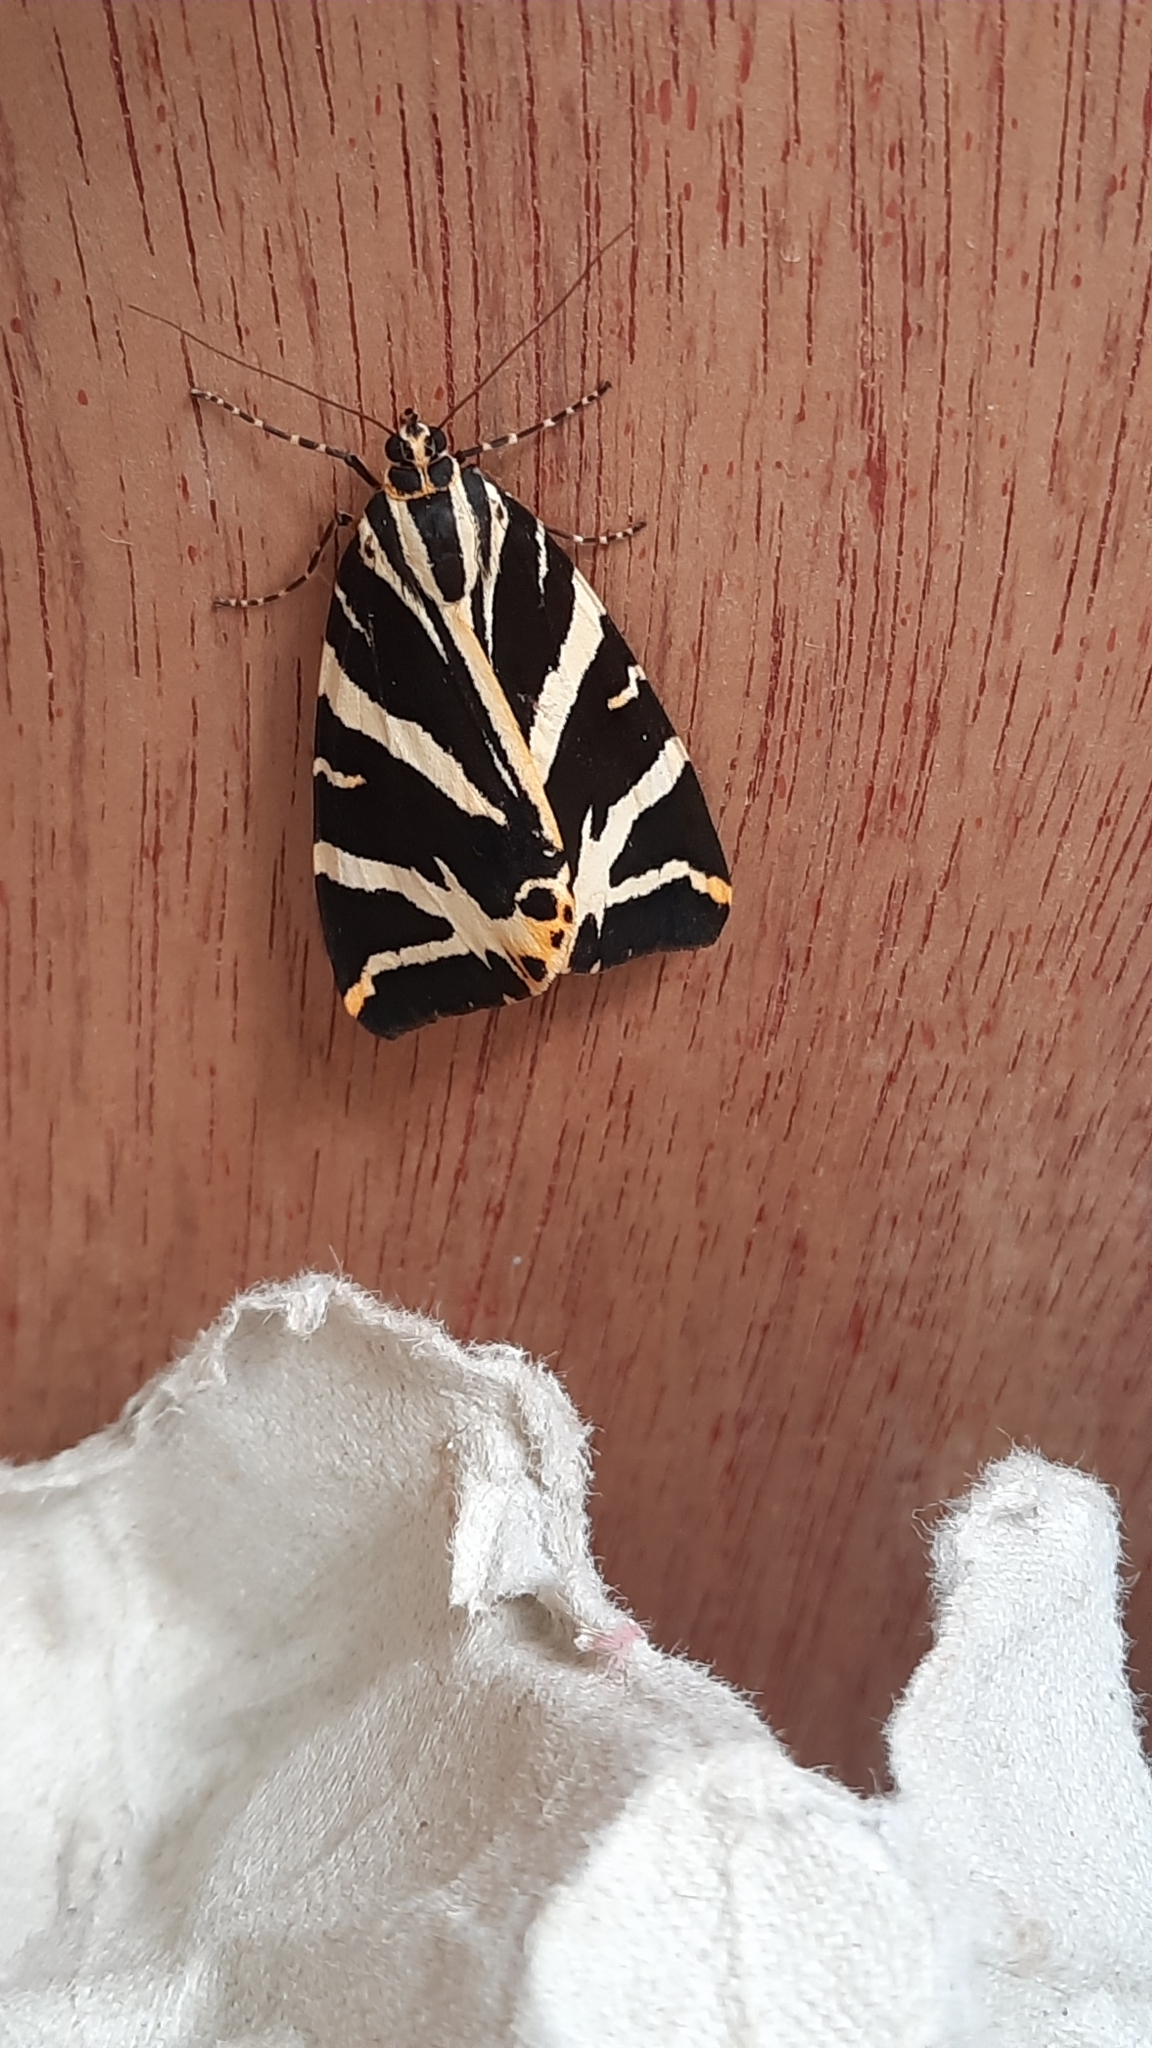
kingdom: Animalia
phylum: Arthropoda
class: Insecta
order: Lepidoptera
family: Erebidae
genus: Euplagia
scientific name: Euplagia quadripunctaria
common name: Jersey tiger
